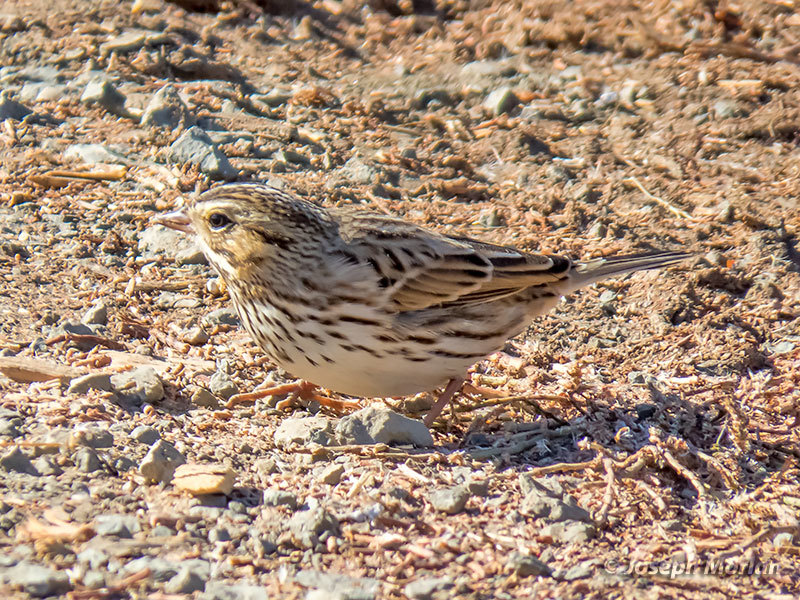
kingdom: Animalia
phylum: Chordata
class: Aves
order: Passeriformes
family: Passerellidae
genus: Passerculus
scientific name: Passerculus sandwichensis
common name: Savannah sparrow
